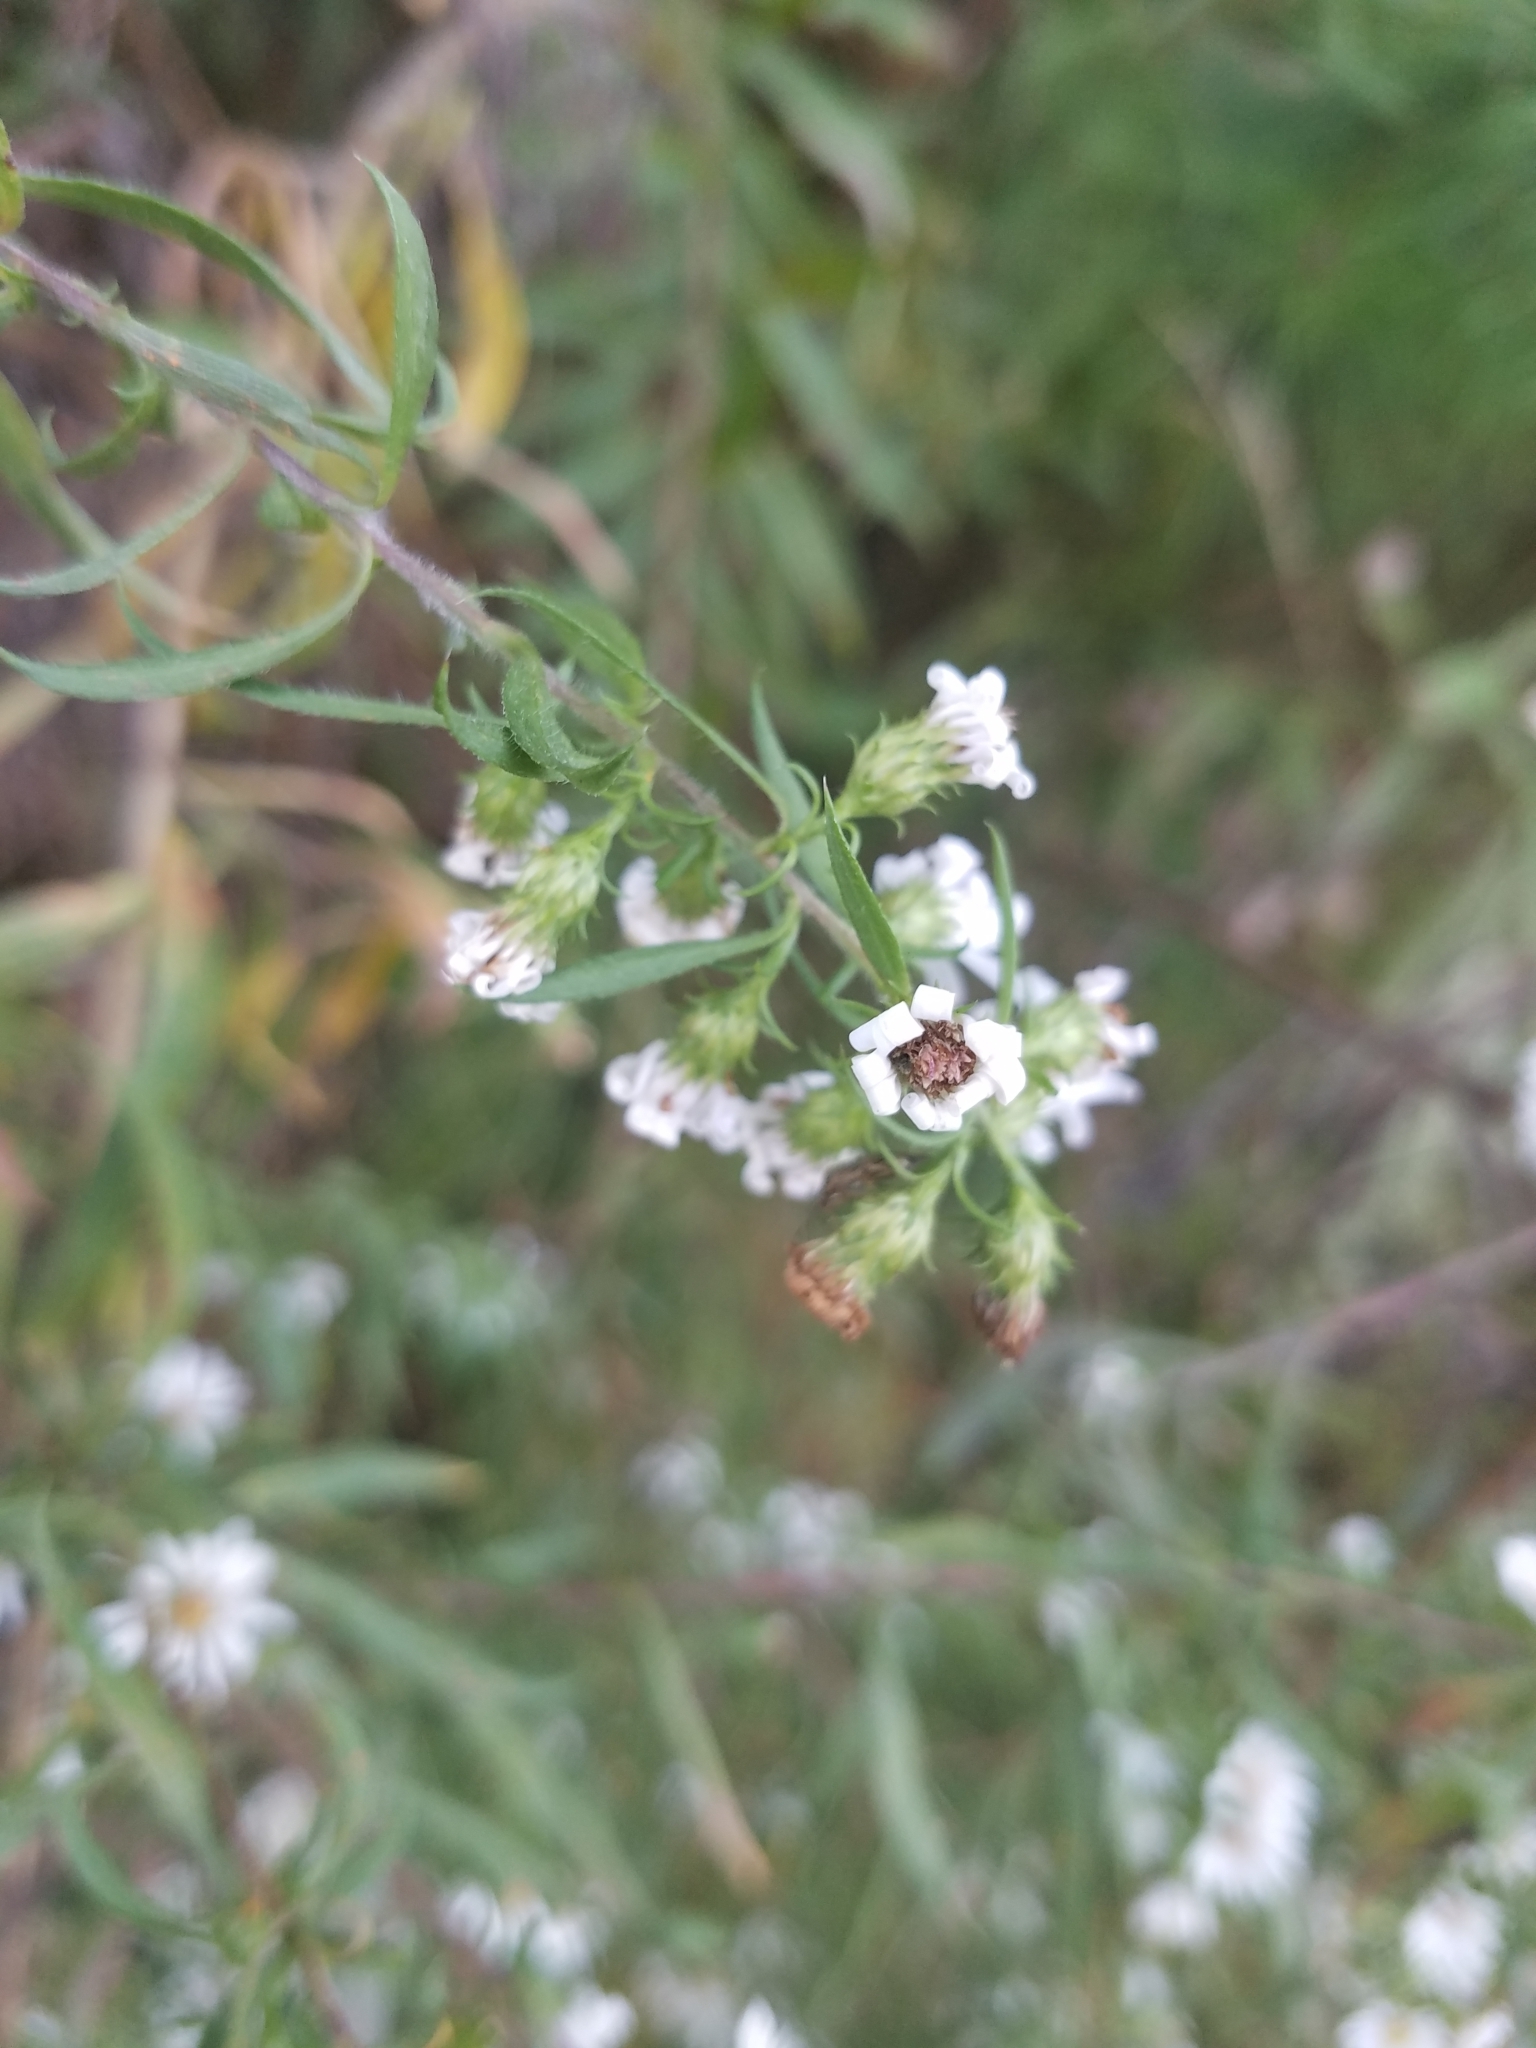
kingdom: Plantae
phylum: Tracheophyta
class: Magnoliopsida
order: Asterales
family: Asteraceae
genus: Symphyotrichum
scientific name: Symphyotrichum pilosum
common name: Awl aster
